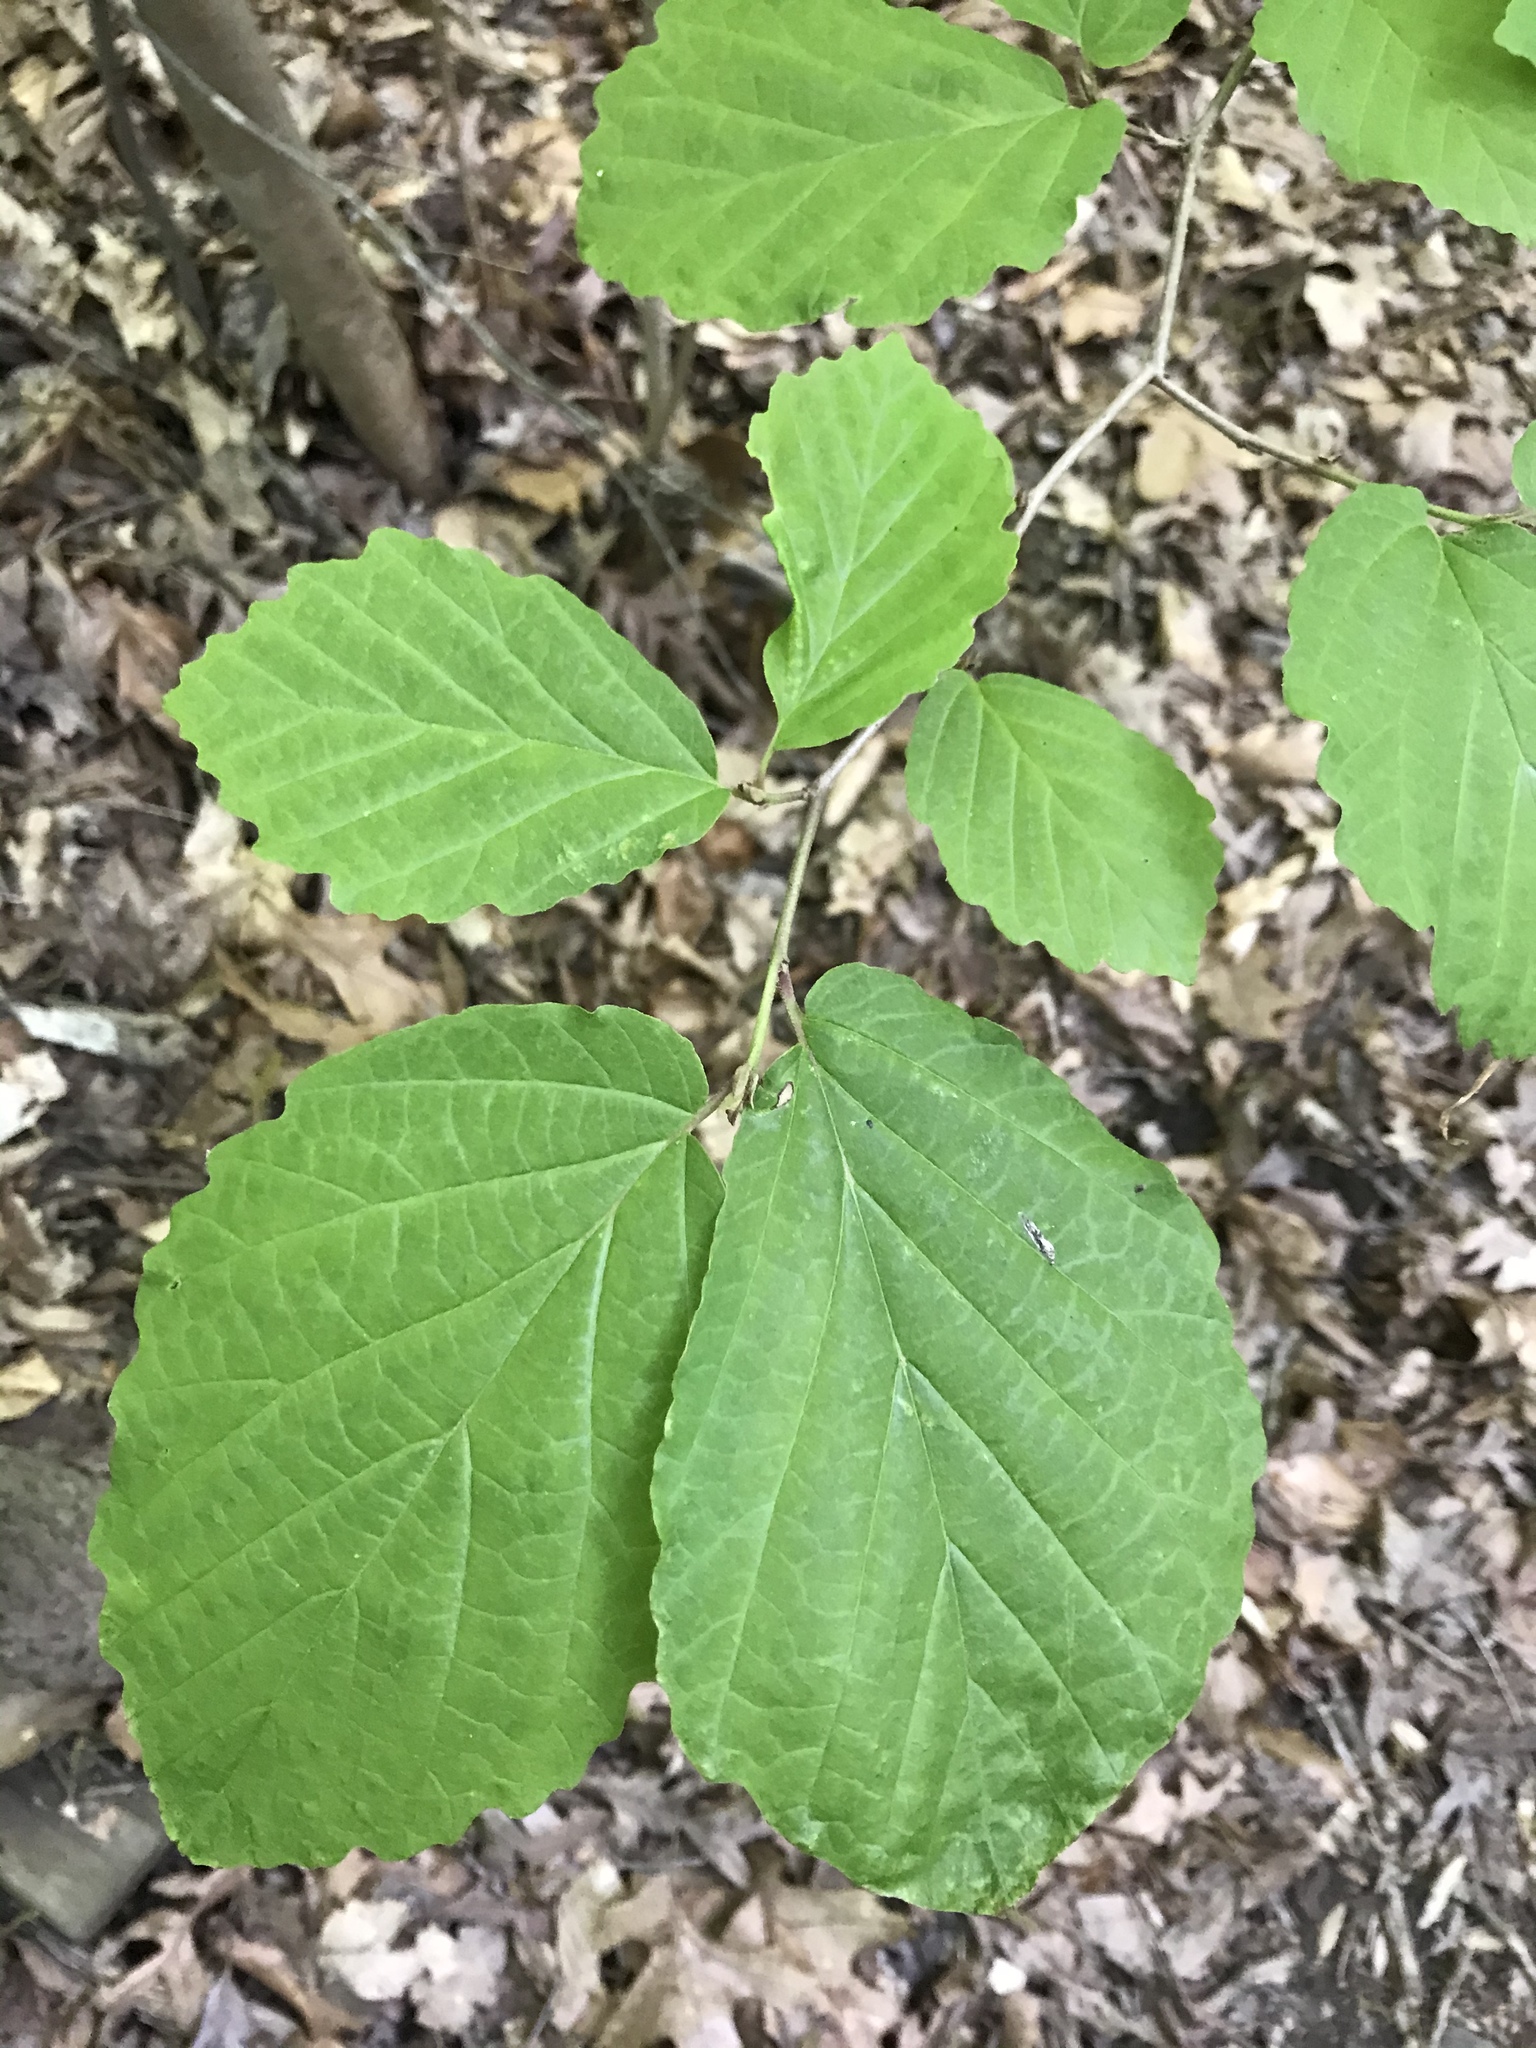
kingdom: Plantae
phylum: Tracheophyta
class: Magnoliopsida
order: Saxifragales
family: Hamamelidaceae
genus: Hamamelis
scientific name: Hamamelis virginiana
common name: Witch-hazel
